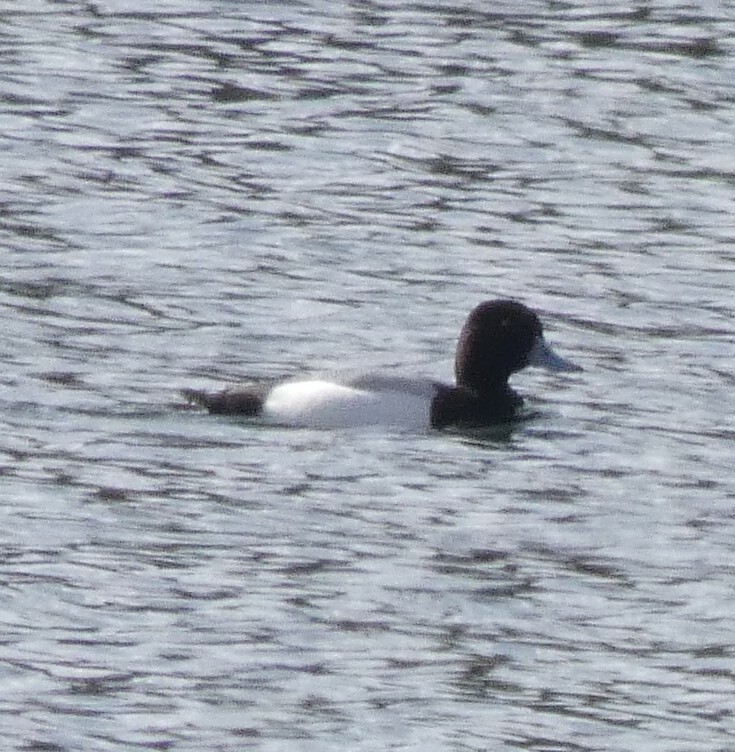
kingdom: Animalia
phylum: Chordata
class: Aves
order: Anseriformes
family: Anatidae
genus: Aythya
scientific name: Aythya marila
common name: Greater scaup
